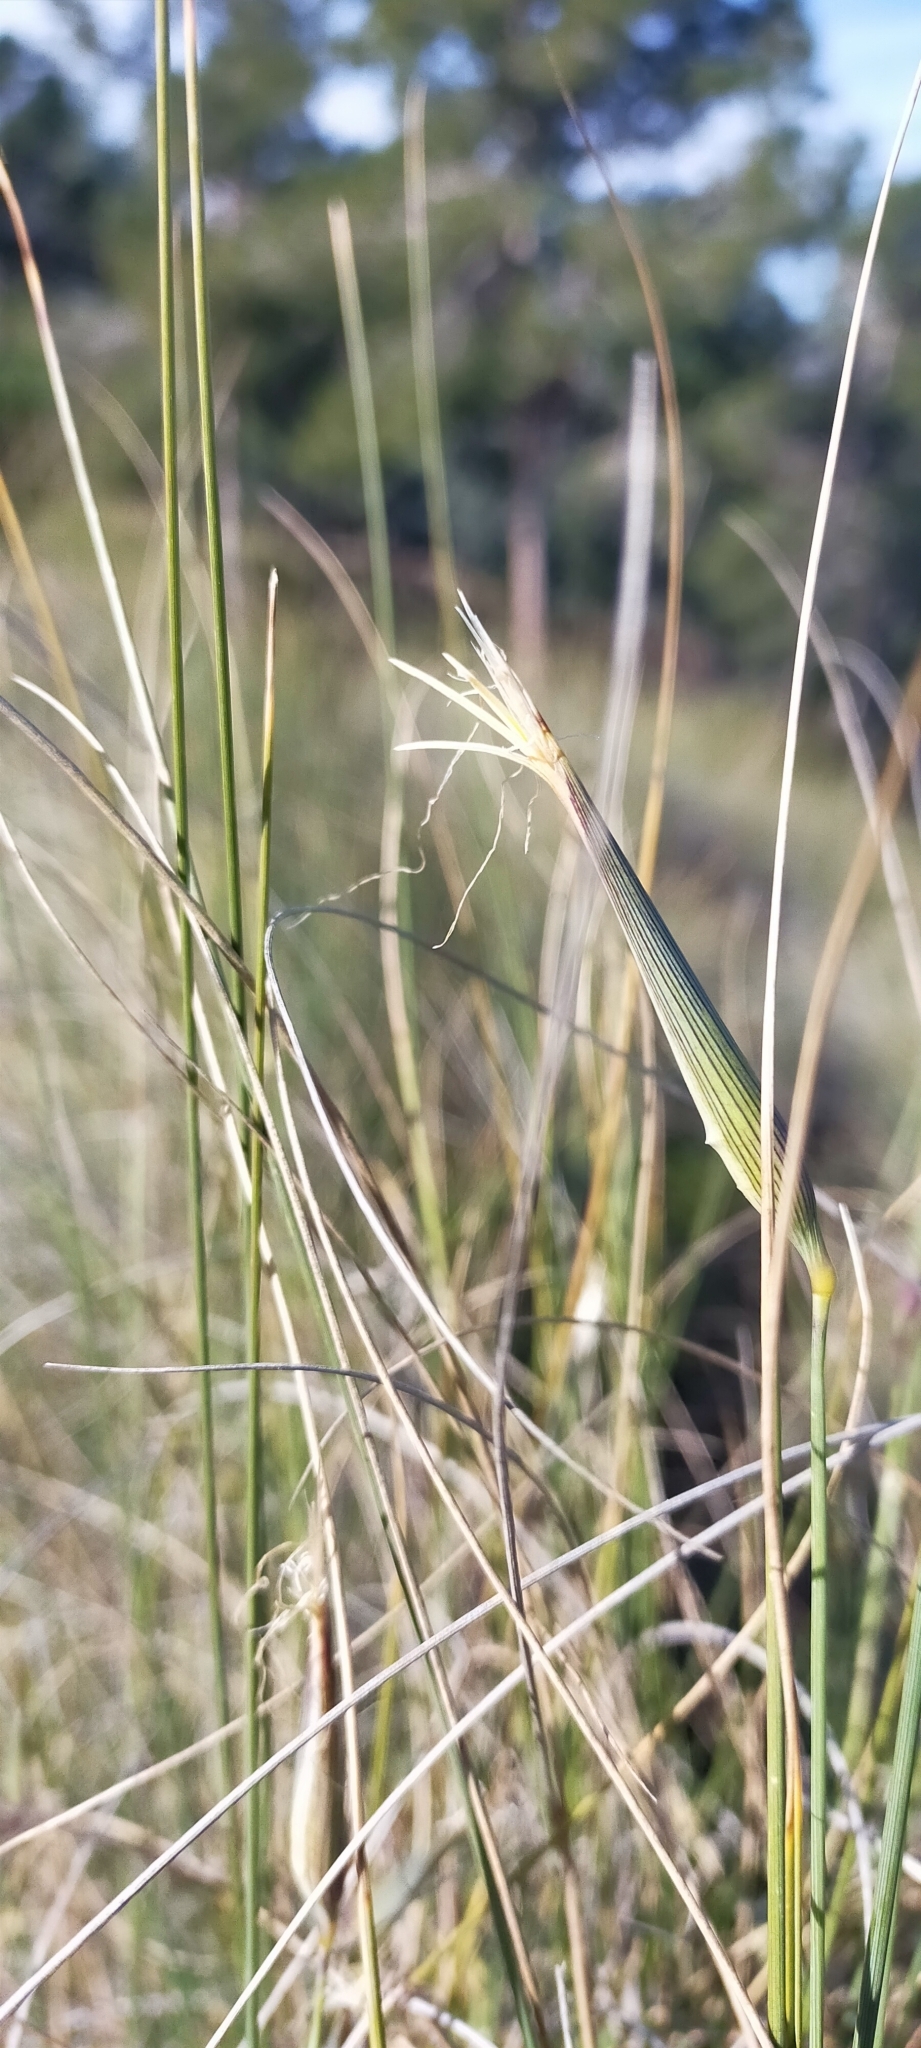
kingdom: Plantae
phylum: Tracheophyta
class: Liliopsida
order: Poales
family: Poaceae
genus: Lygeum
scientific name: Lygeum spartum
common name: Albardine
